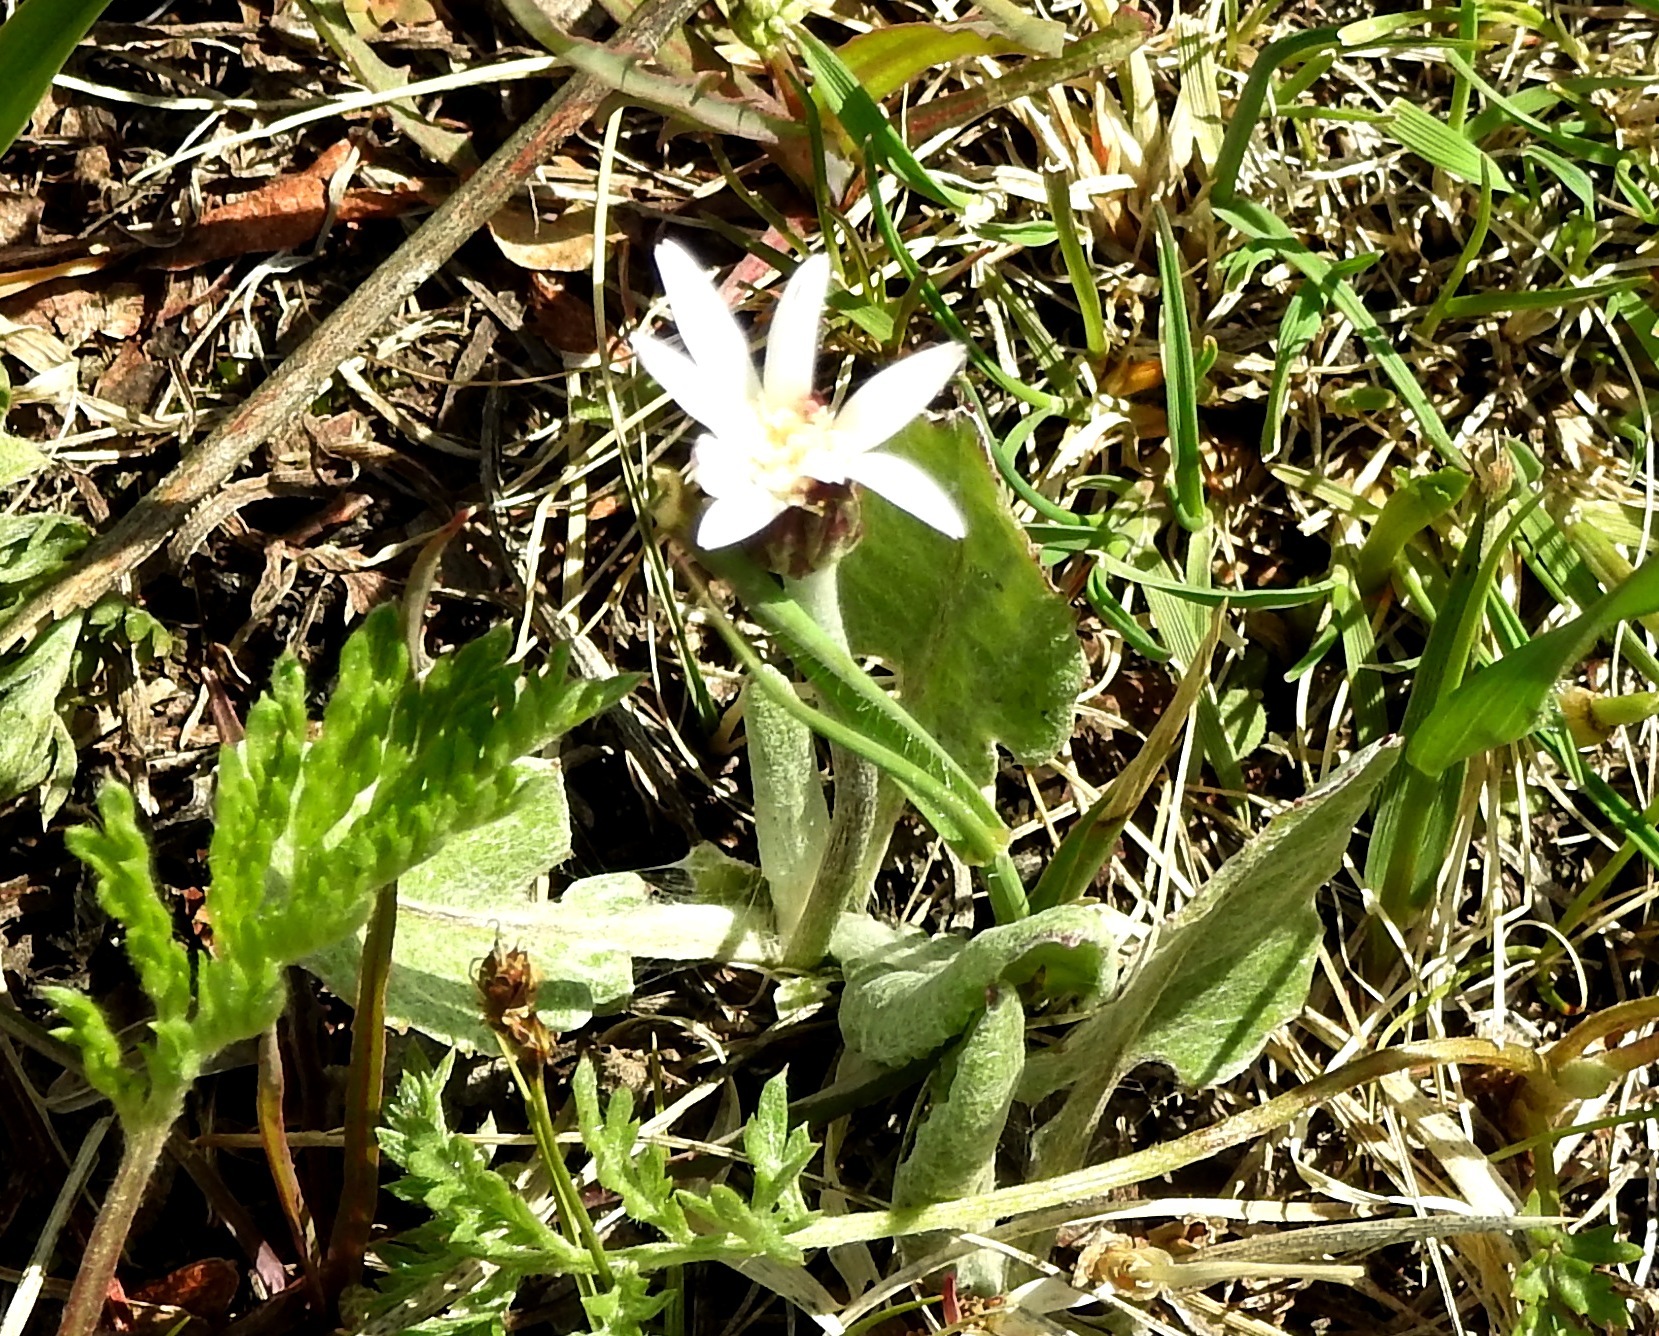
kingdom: Plantae
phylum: Tracheophyta
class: Magnoliopsida
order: Asterales
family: Asteraceae
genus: Leibnitzia
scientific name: Leibnitzia anandria
